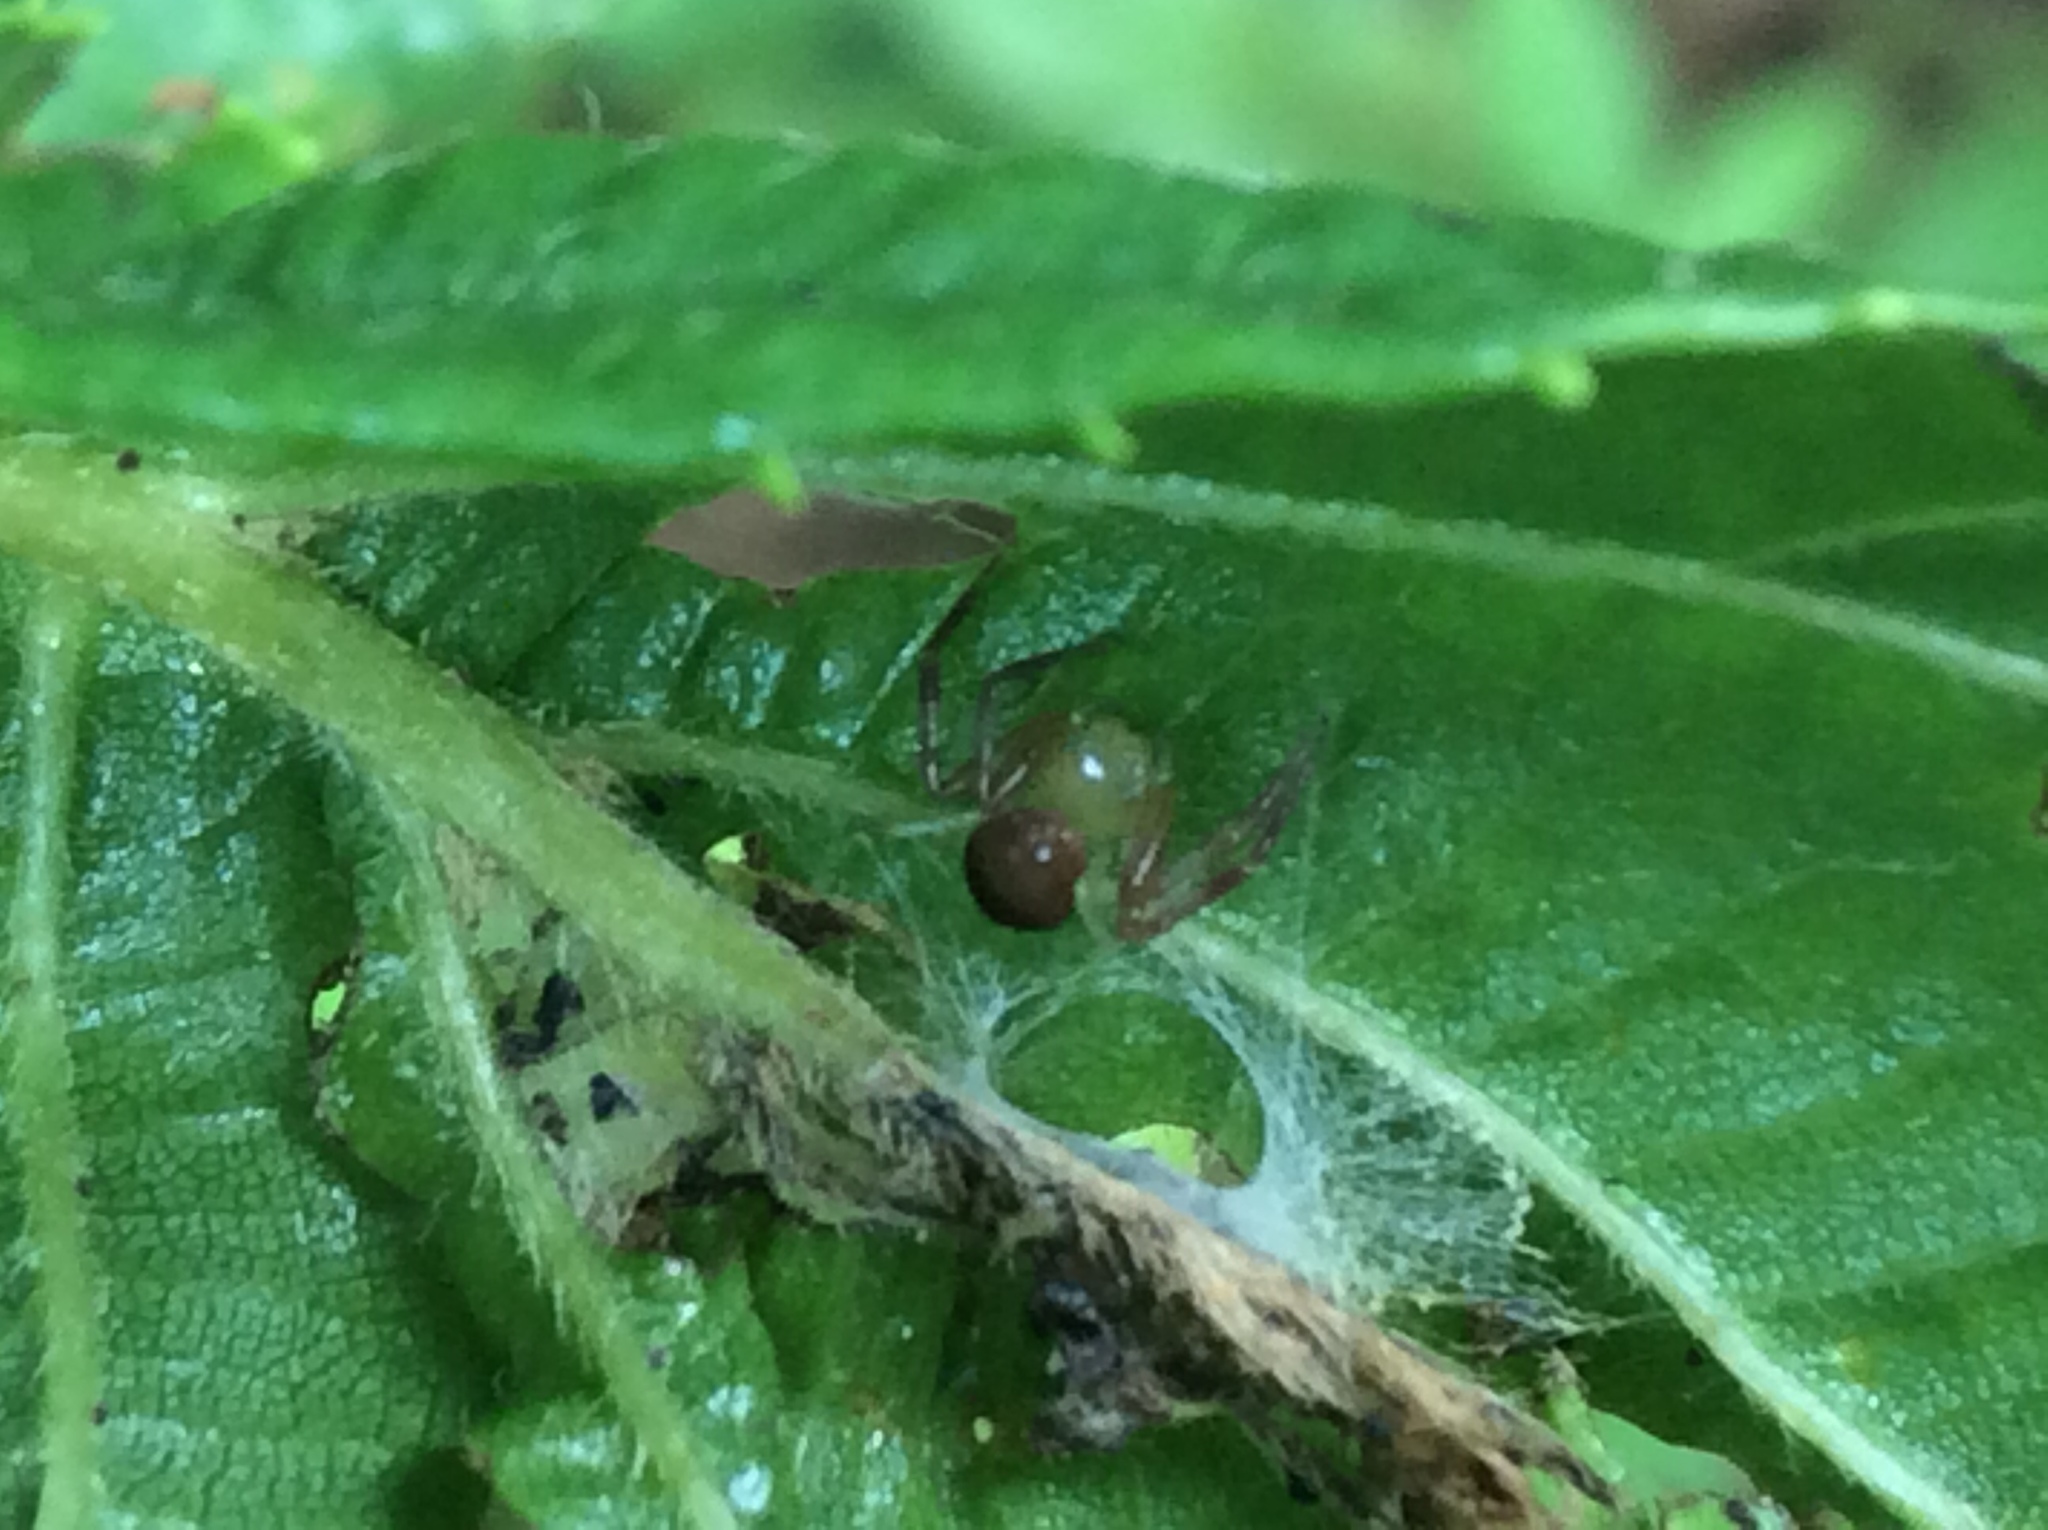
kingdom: Animalia
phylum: Arthropoda
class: Arachnida
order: Araneae
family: Thomisidae
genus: Synema
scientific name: Synema parvulum
